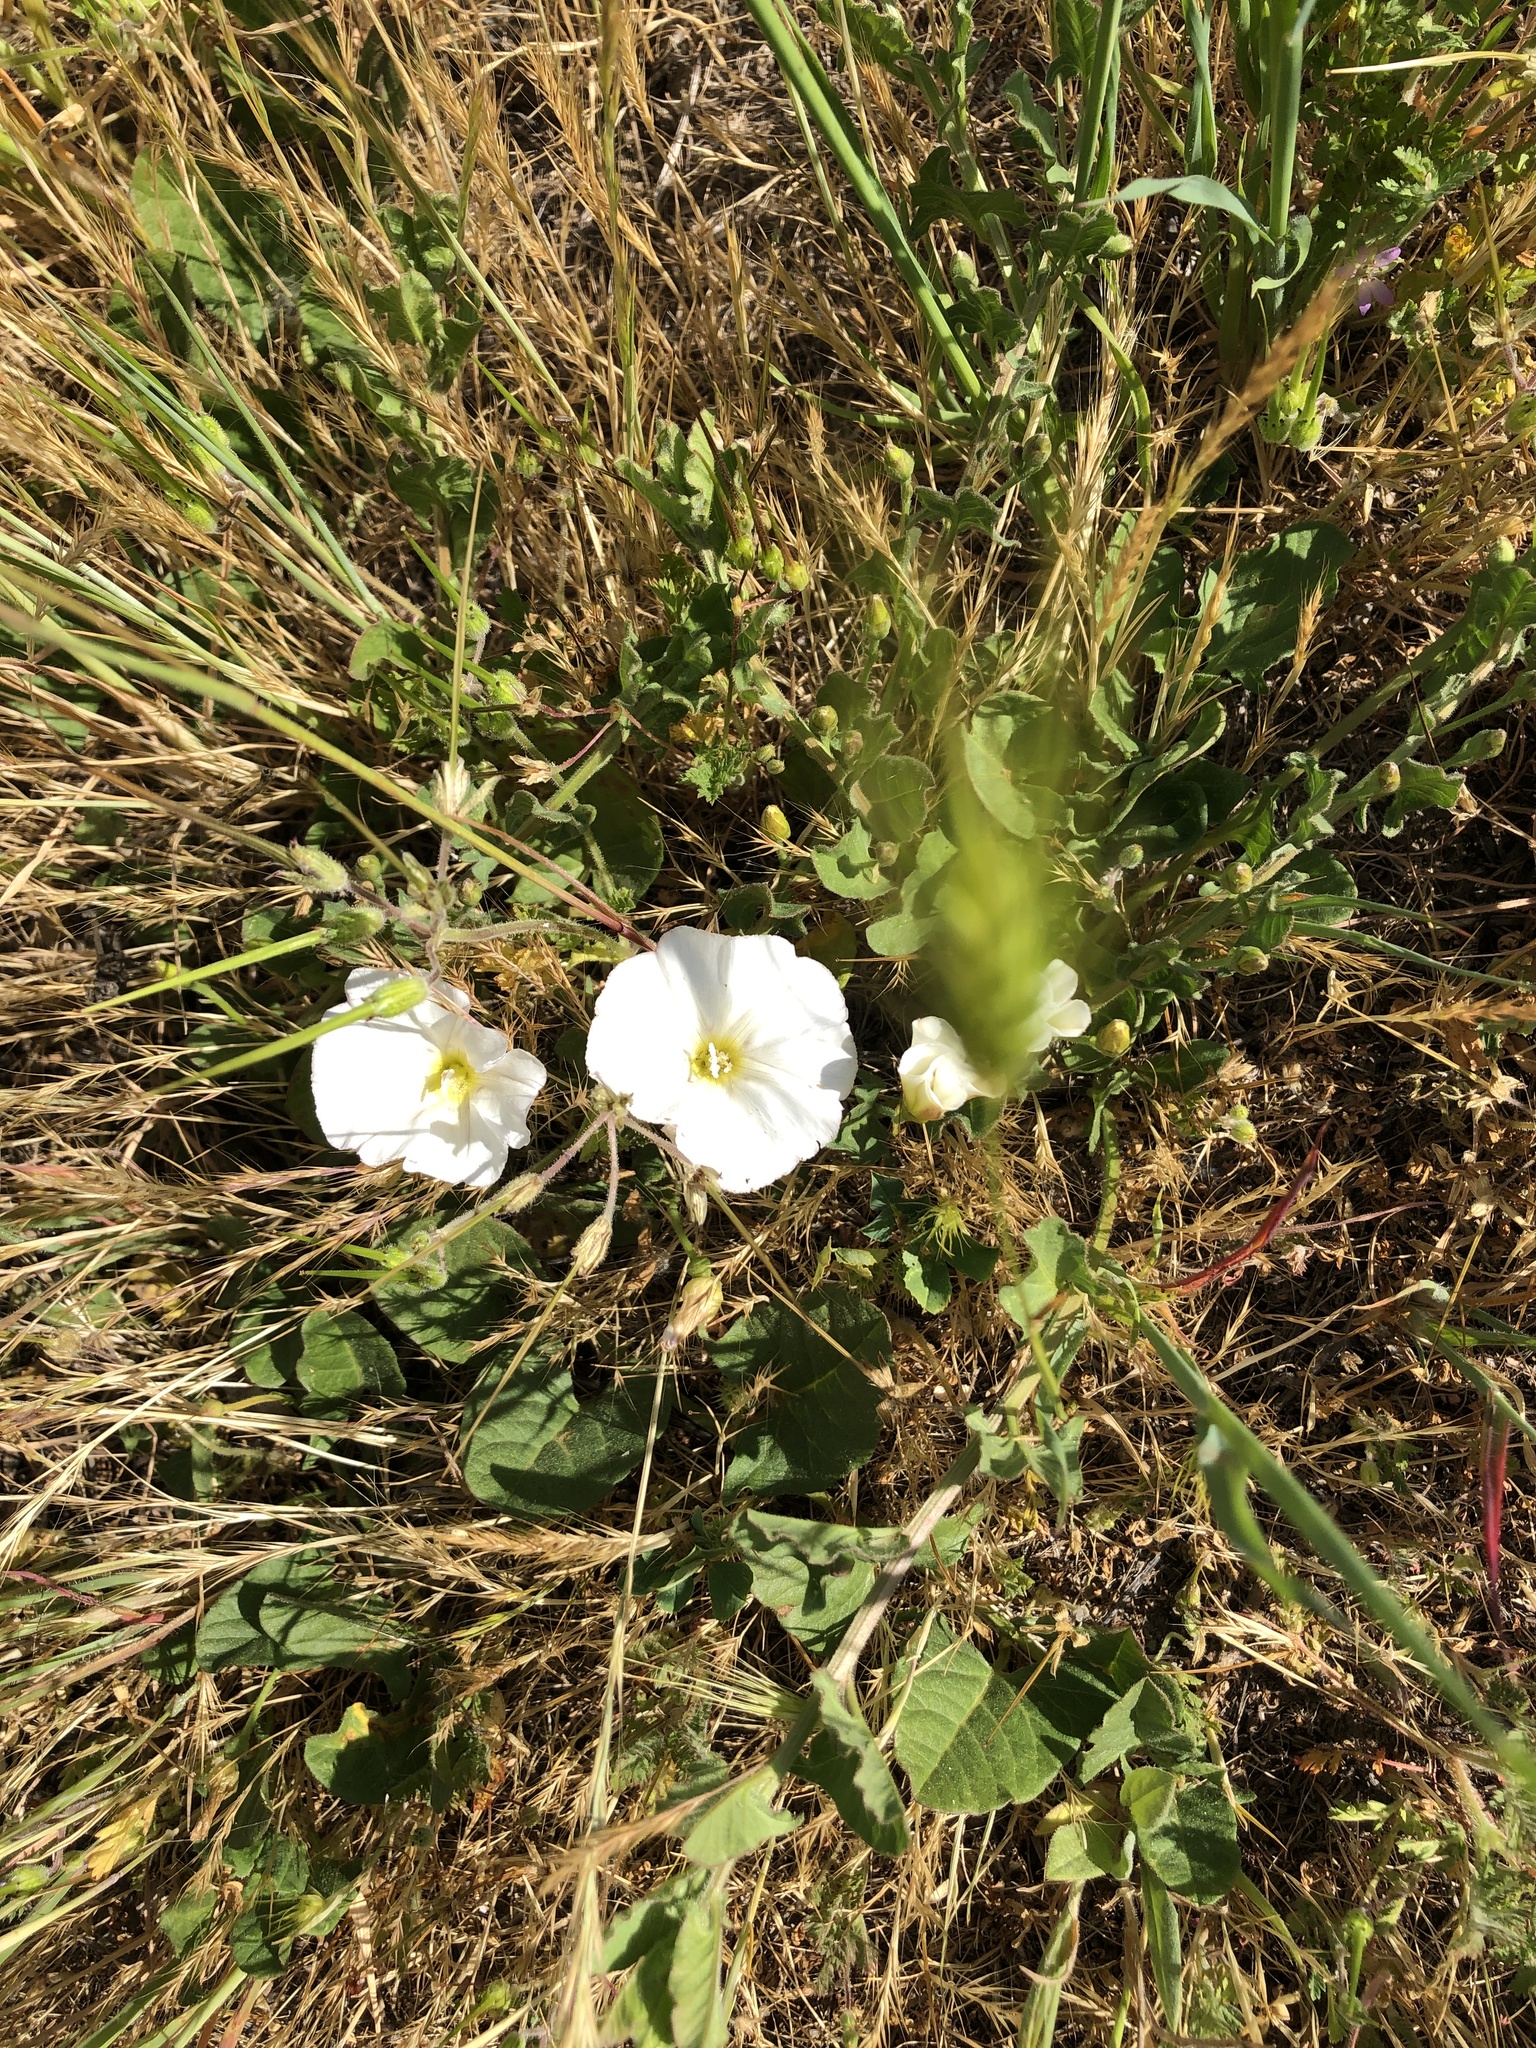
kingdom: Plantae
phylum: Tracheophyta
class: Magnoliopsida
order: Solanales
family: Convolvulaceae
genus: Convolvulus
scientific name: Convolvulus arvensis
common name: Field bindweed
